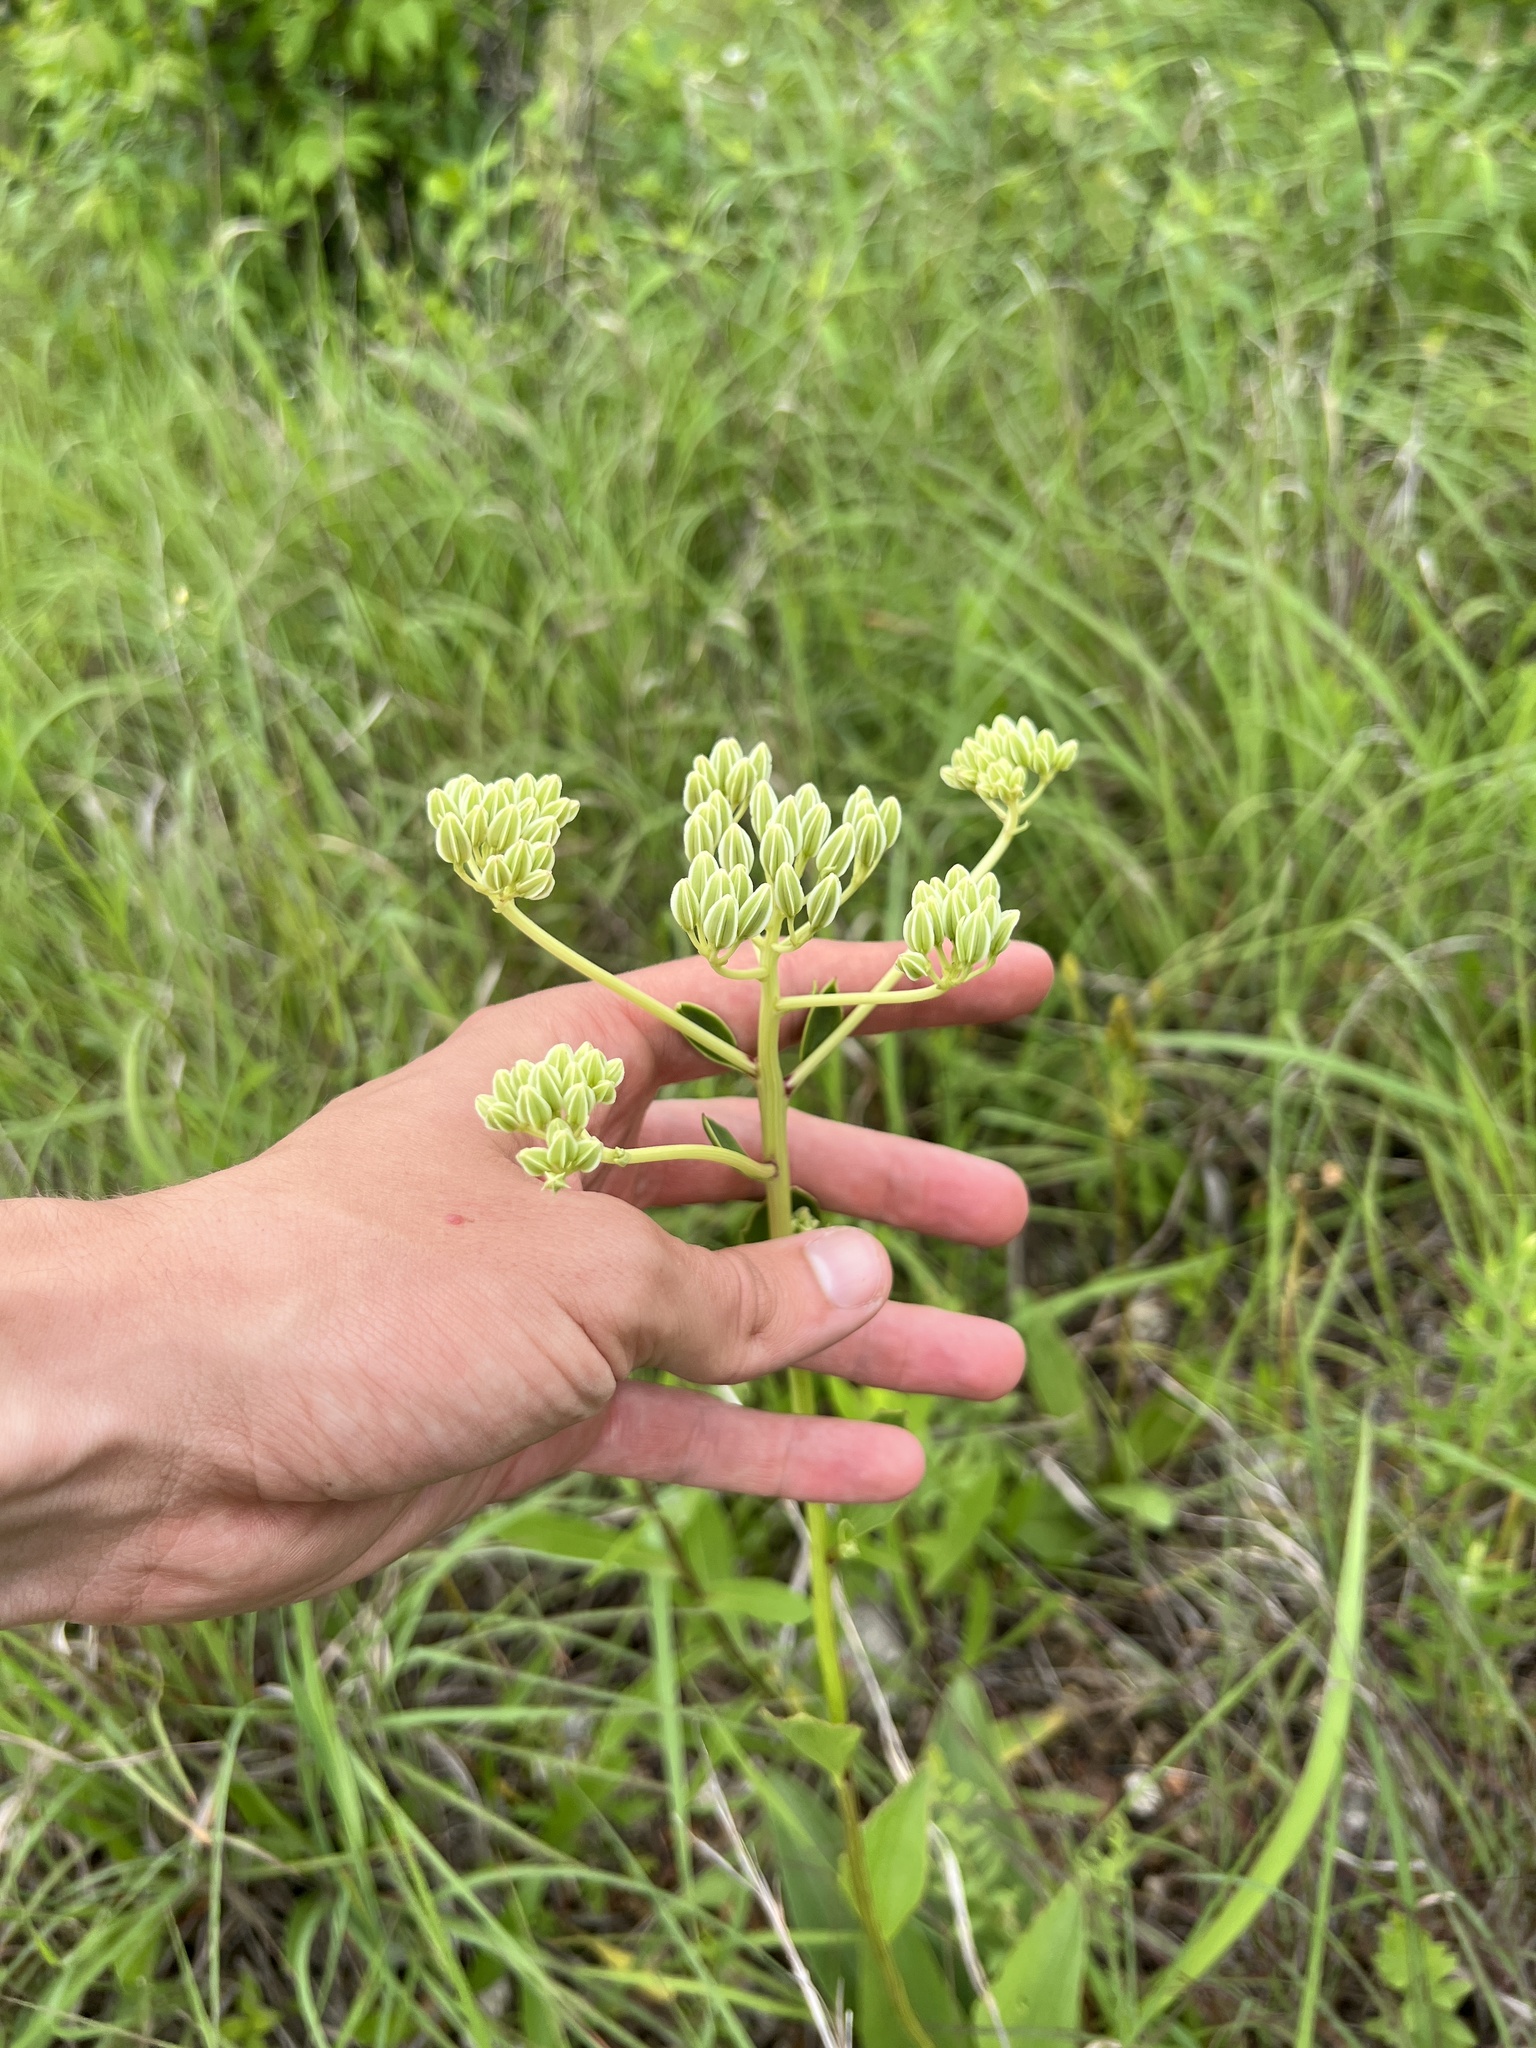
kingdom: Plantae
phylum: Tracheophyta
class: Magnoliopsida
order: Asterales
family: Asteraceae
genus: Arnoglossum
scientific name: Arnoglossum plantagineum
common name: Groove-stemmed indian-plantain
